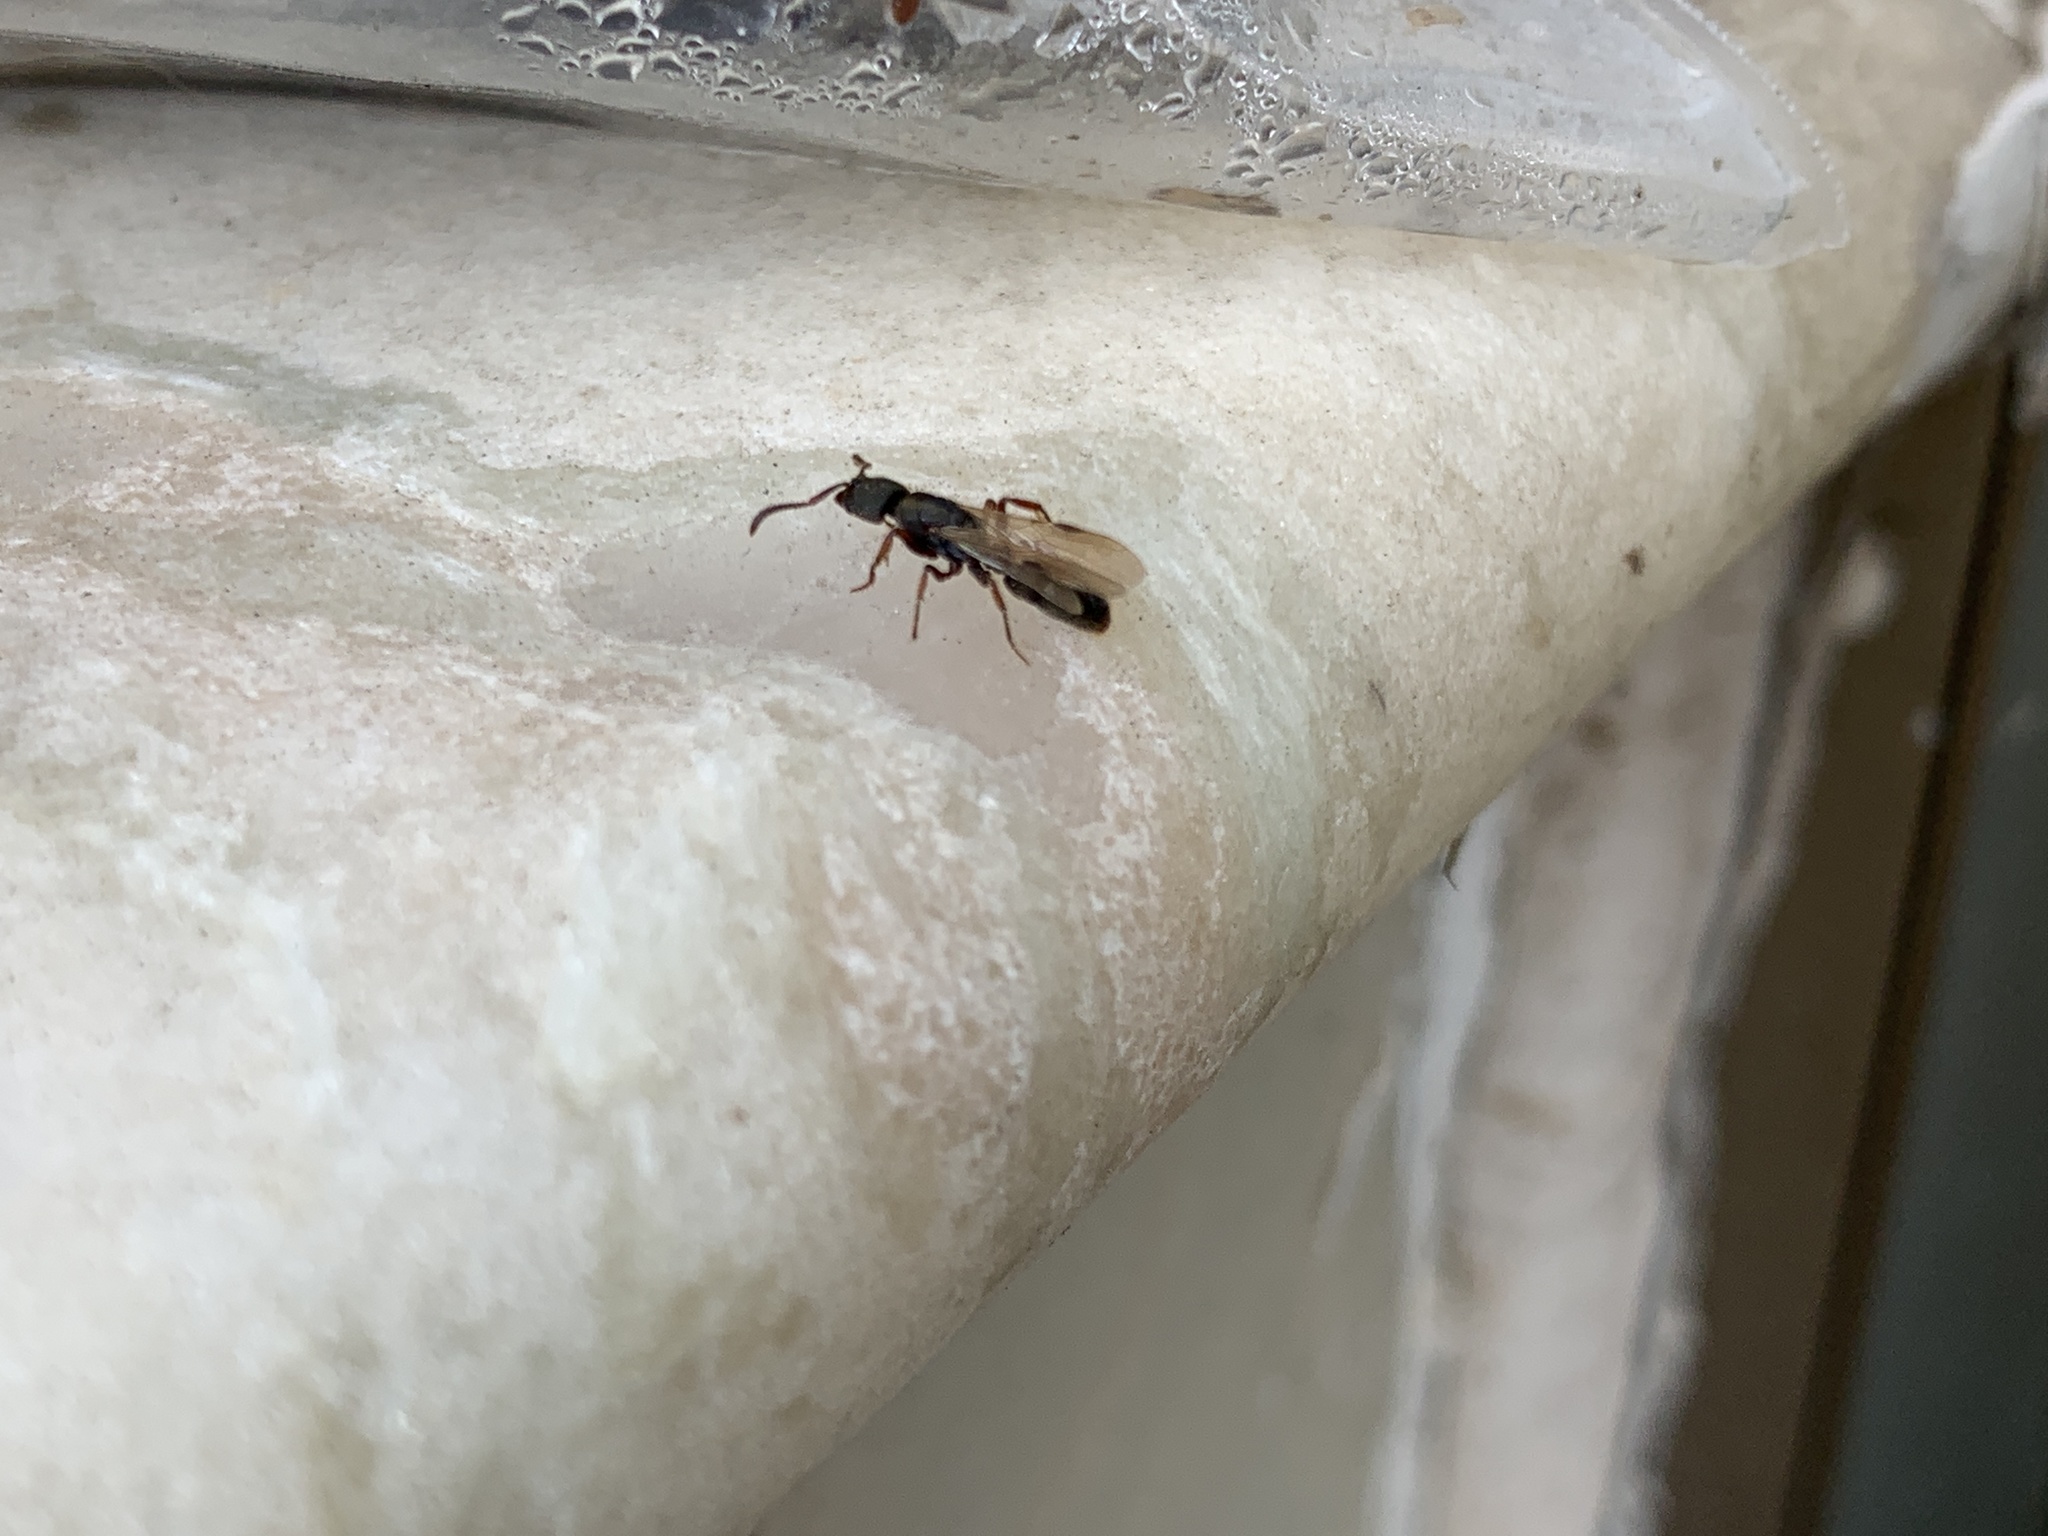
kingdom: Animalia
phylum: Arthropoda
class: Insecta
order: Hymenoptera
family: Formicidae
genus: Pachycondyla
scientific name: Pachycondyla Euponera sharpi
